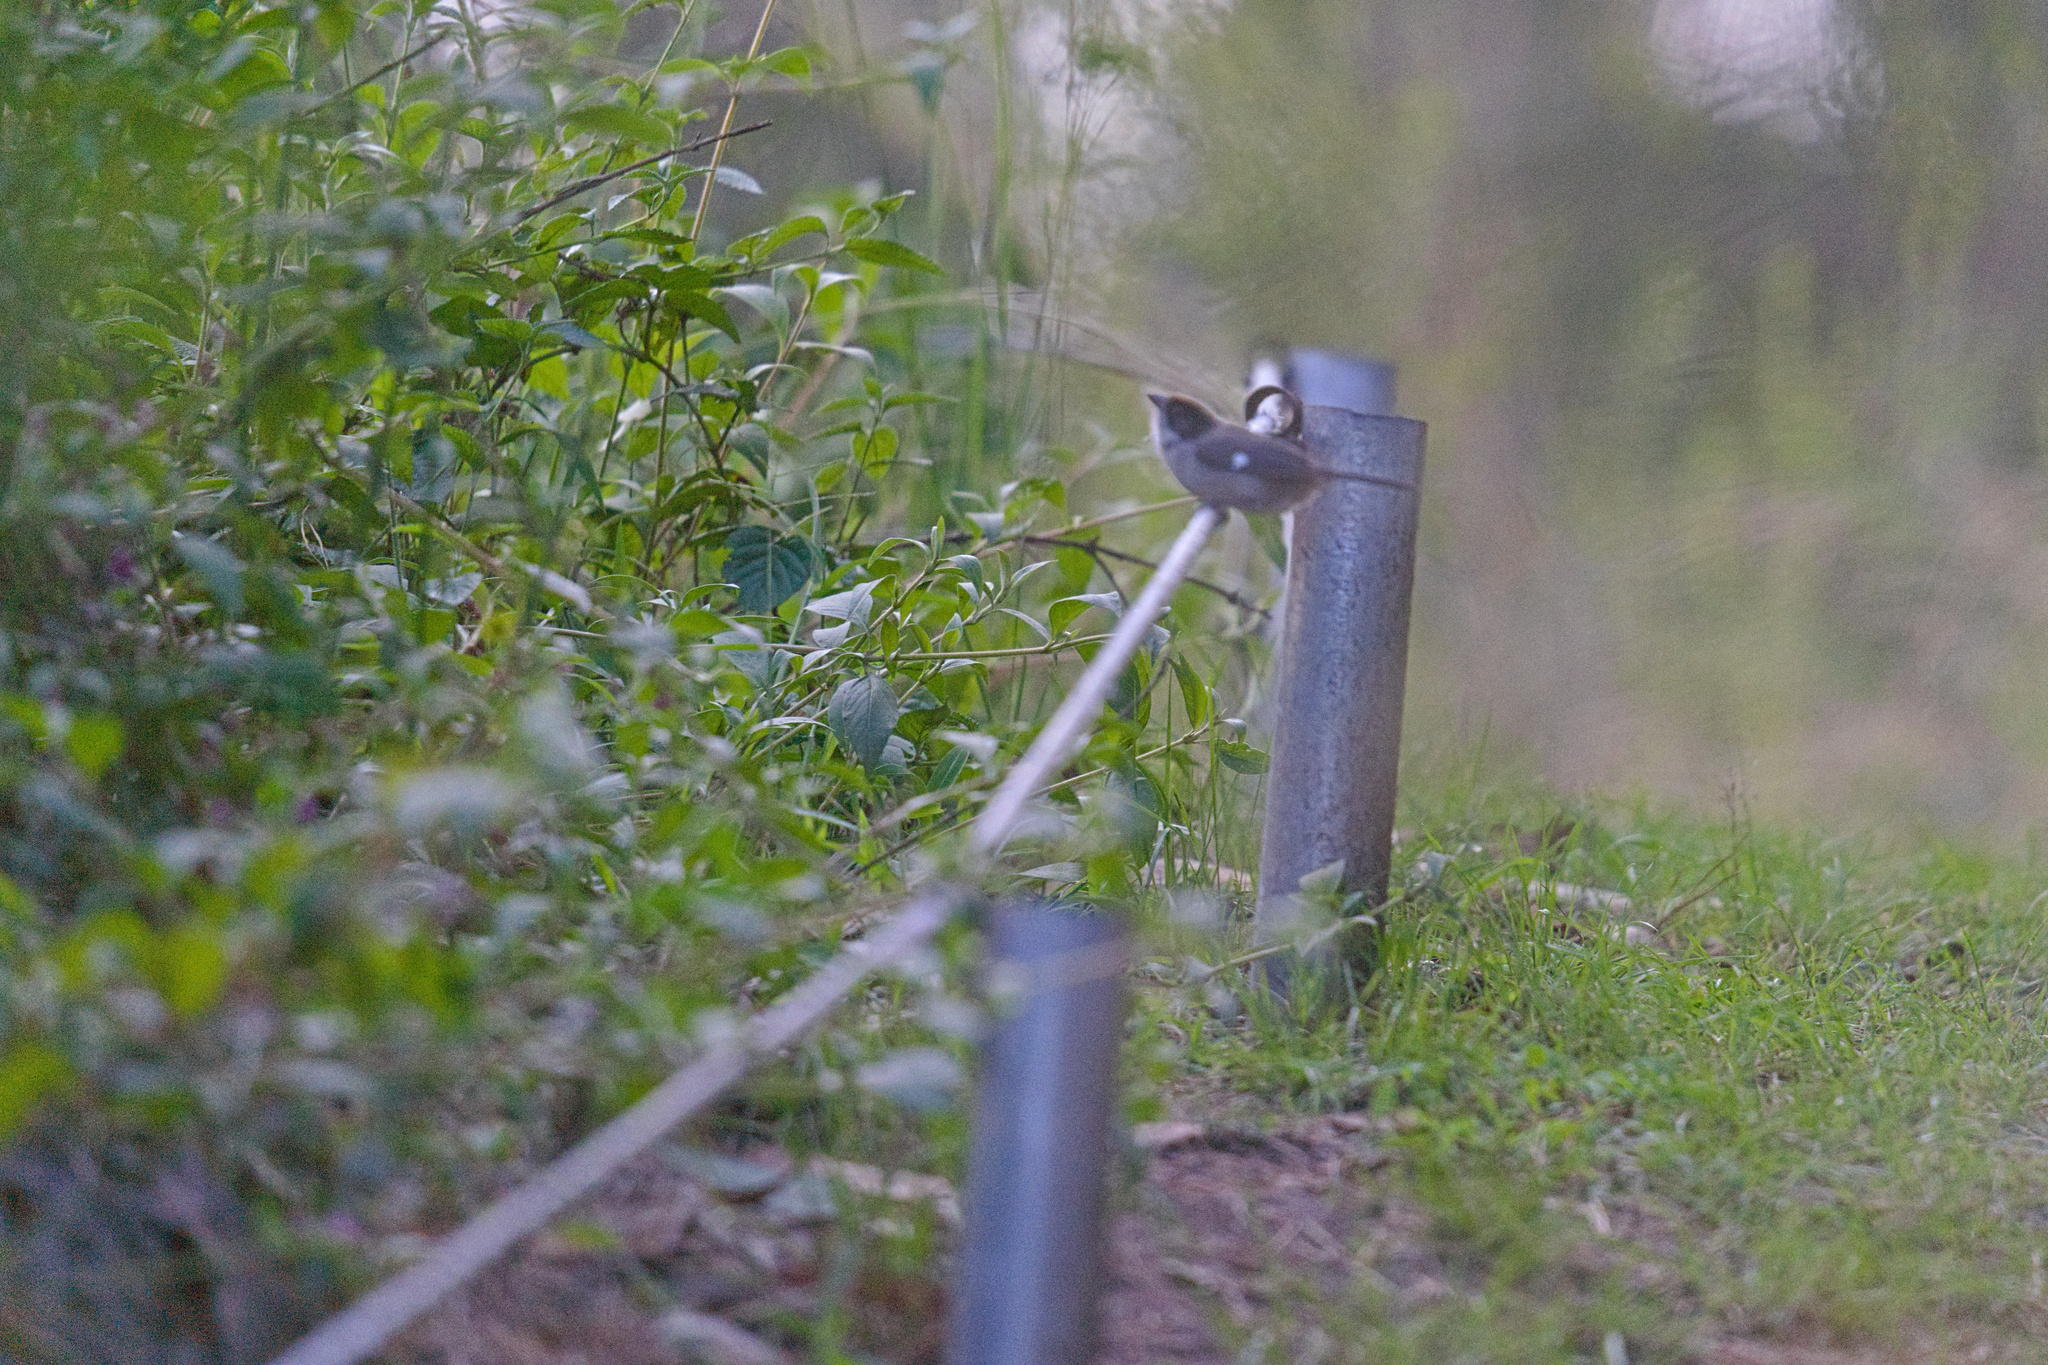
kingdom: Animalia
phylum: Chordata
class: Aves
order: Passeriformes
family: Passerellidae
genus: Atlapetes
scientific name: Atlapetes leucopterus
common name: White-winged brushfinch
